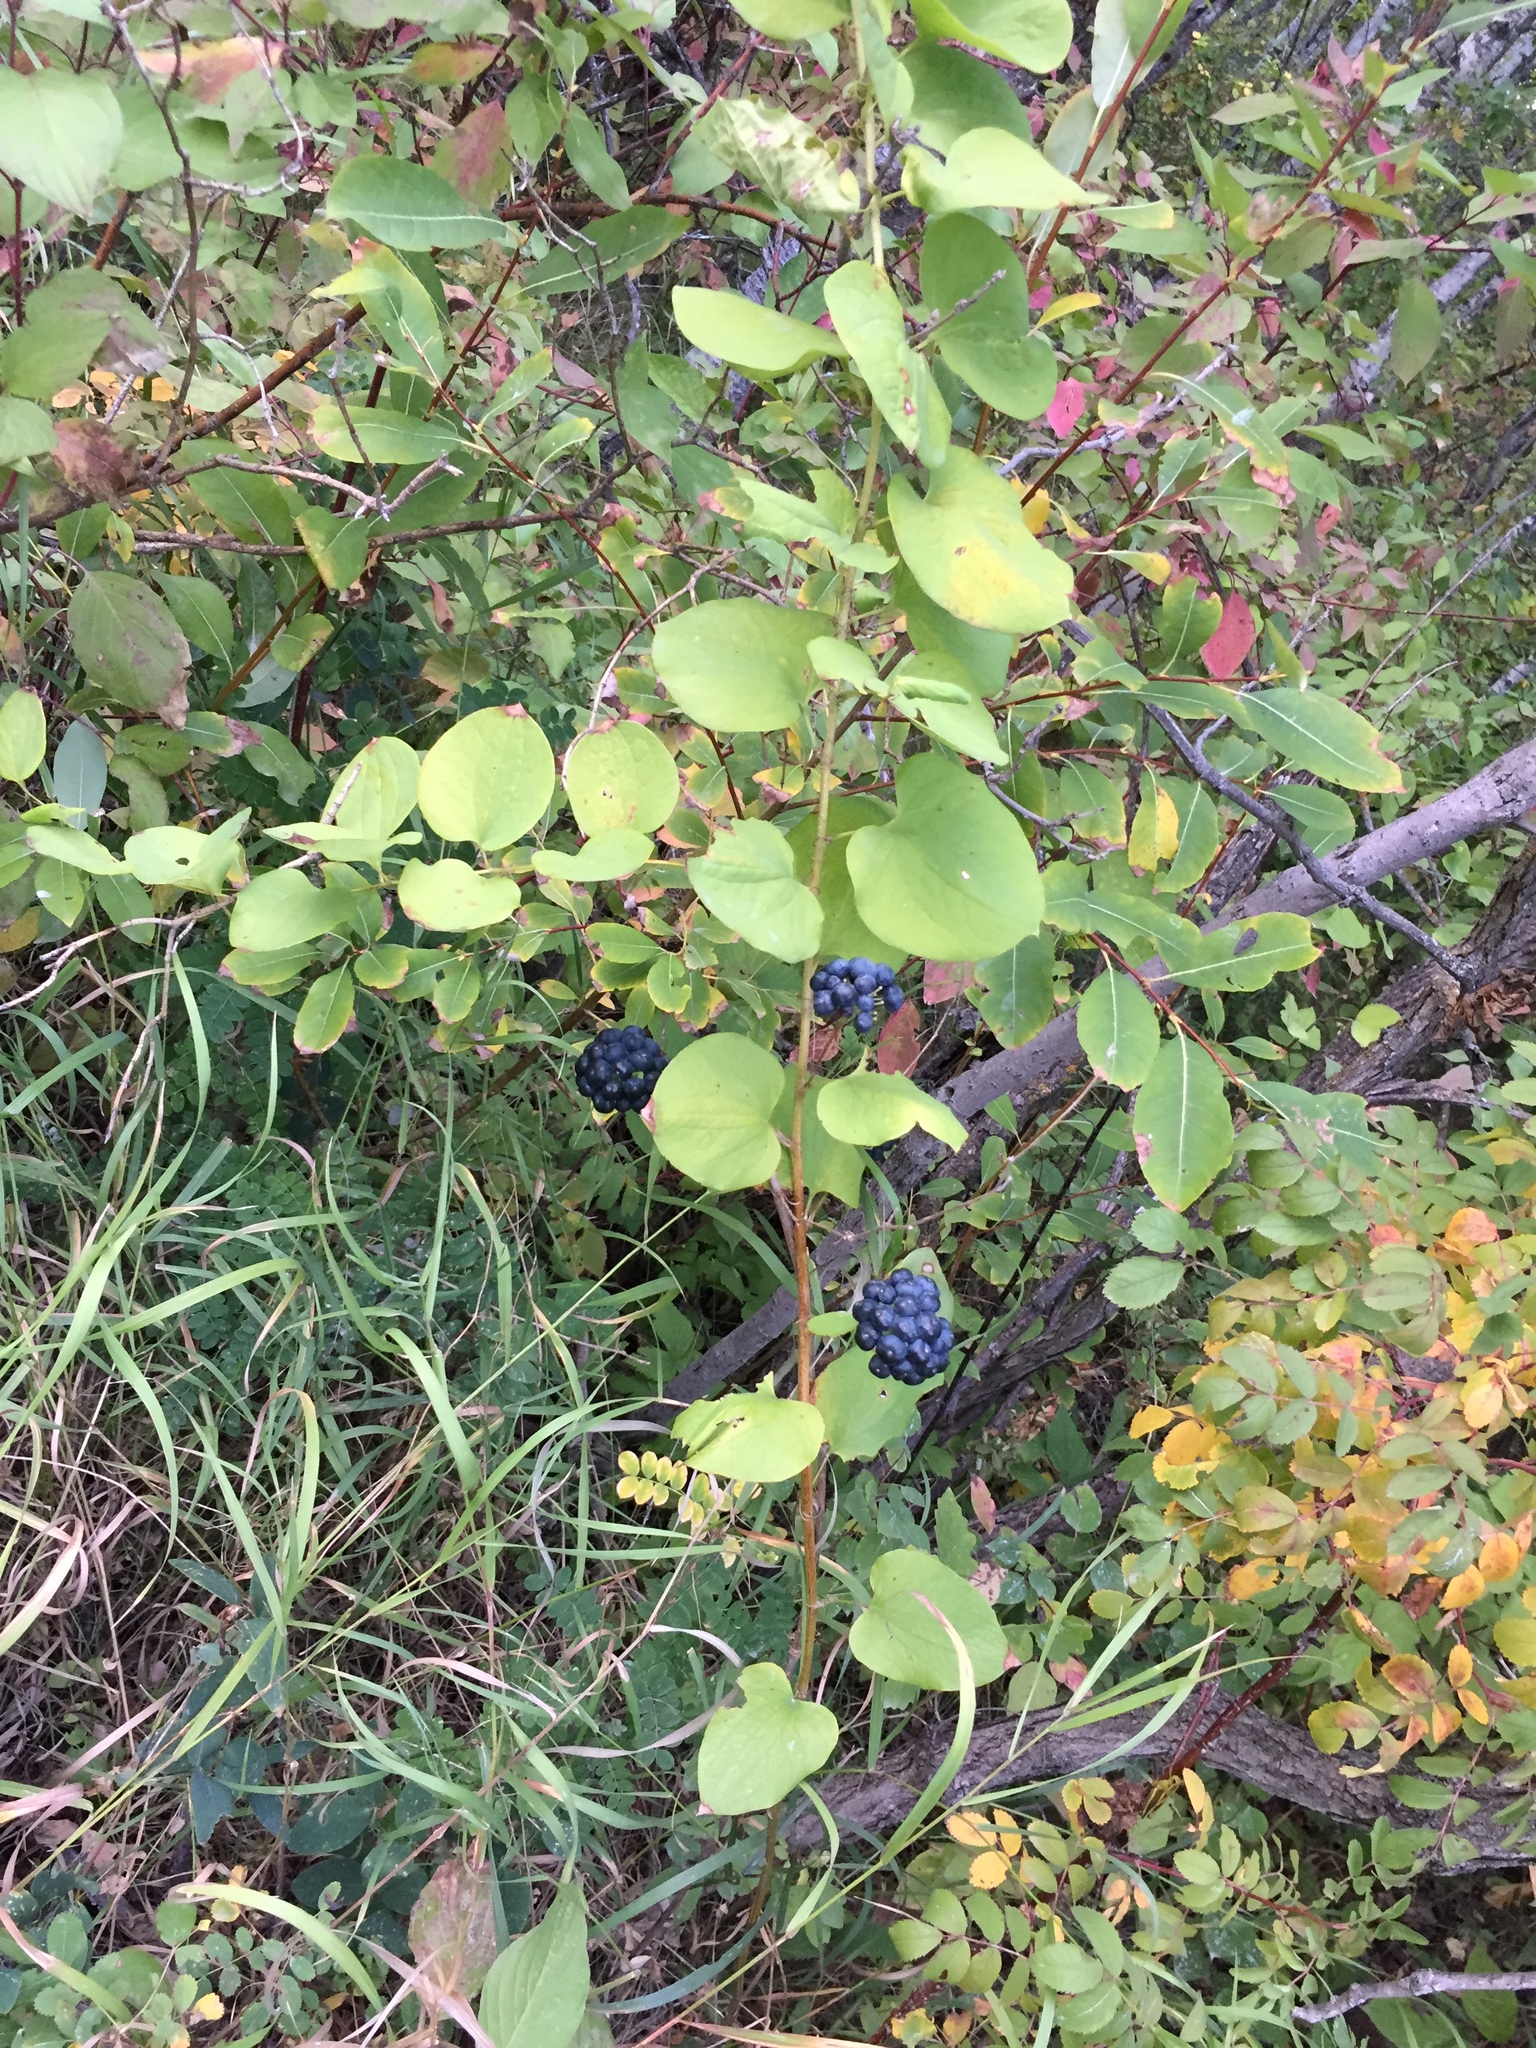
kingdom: Plantae
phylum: Tracheophyta
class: Liliopsida
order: Liliales
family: Smilacaceae
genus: Smilax
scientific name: Smilax lasioneura
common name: Blue ridge carrionflower
